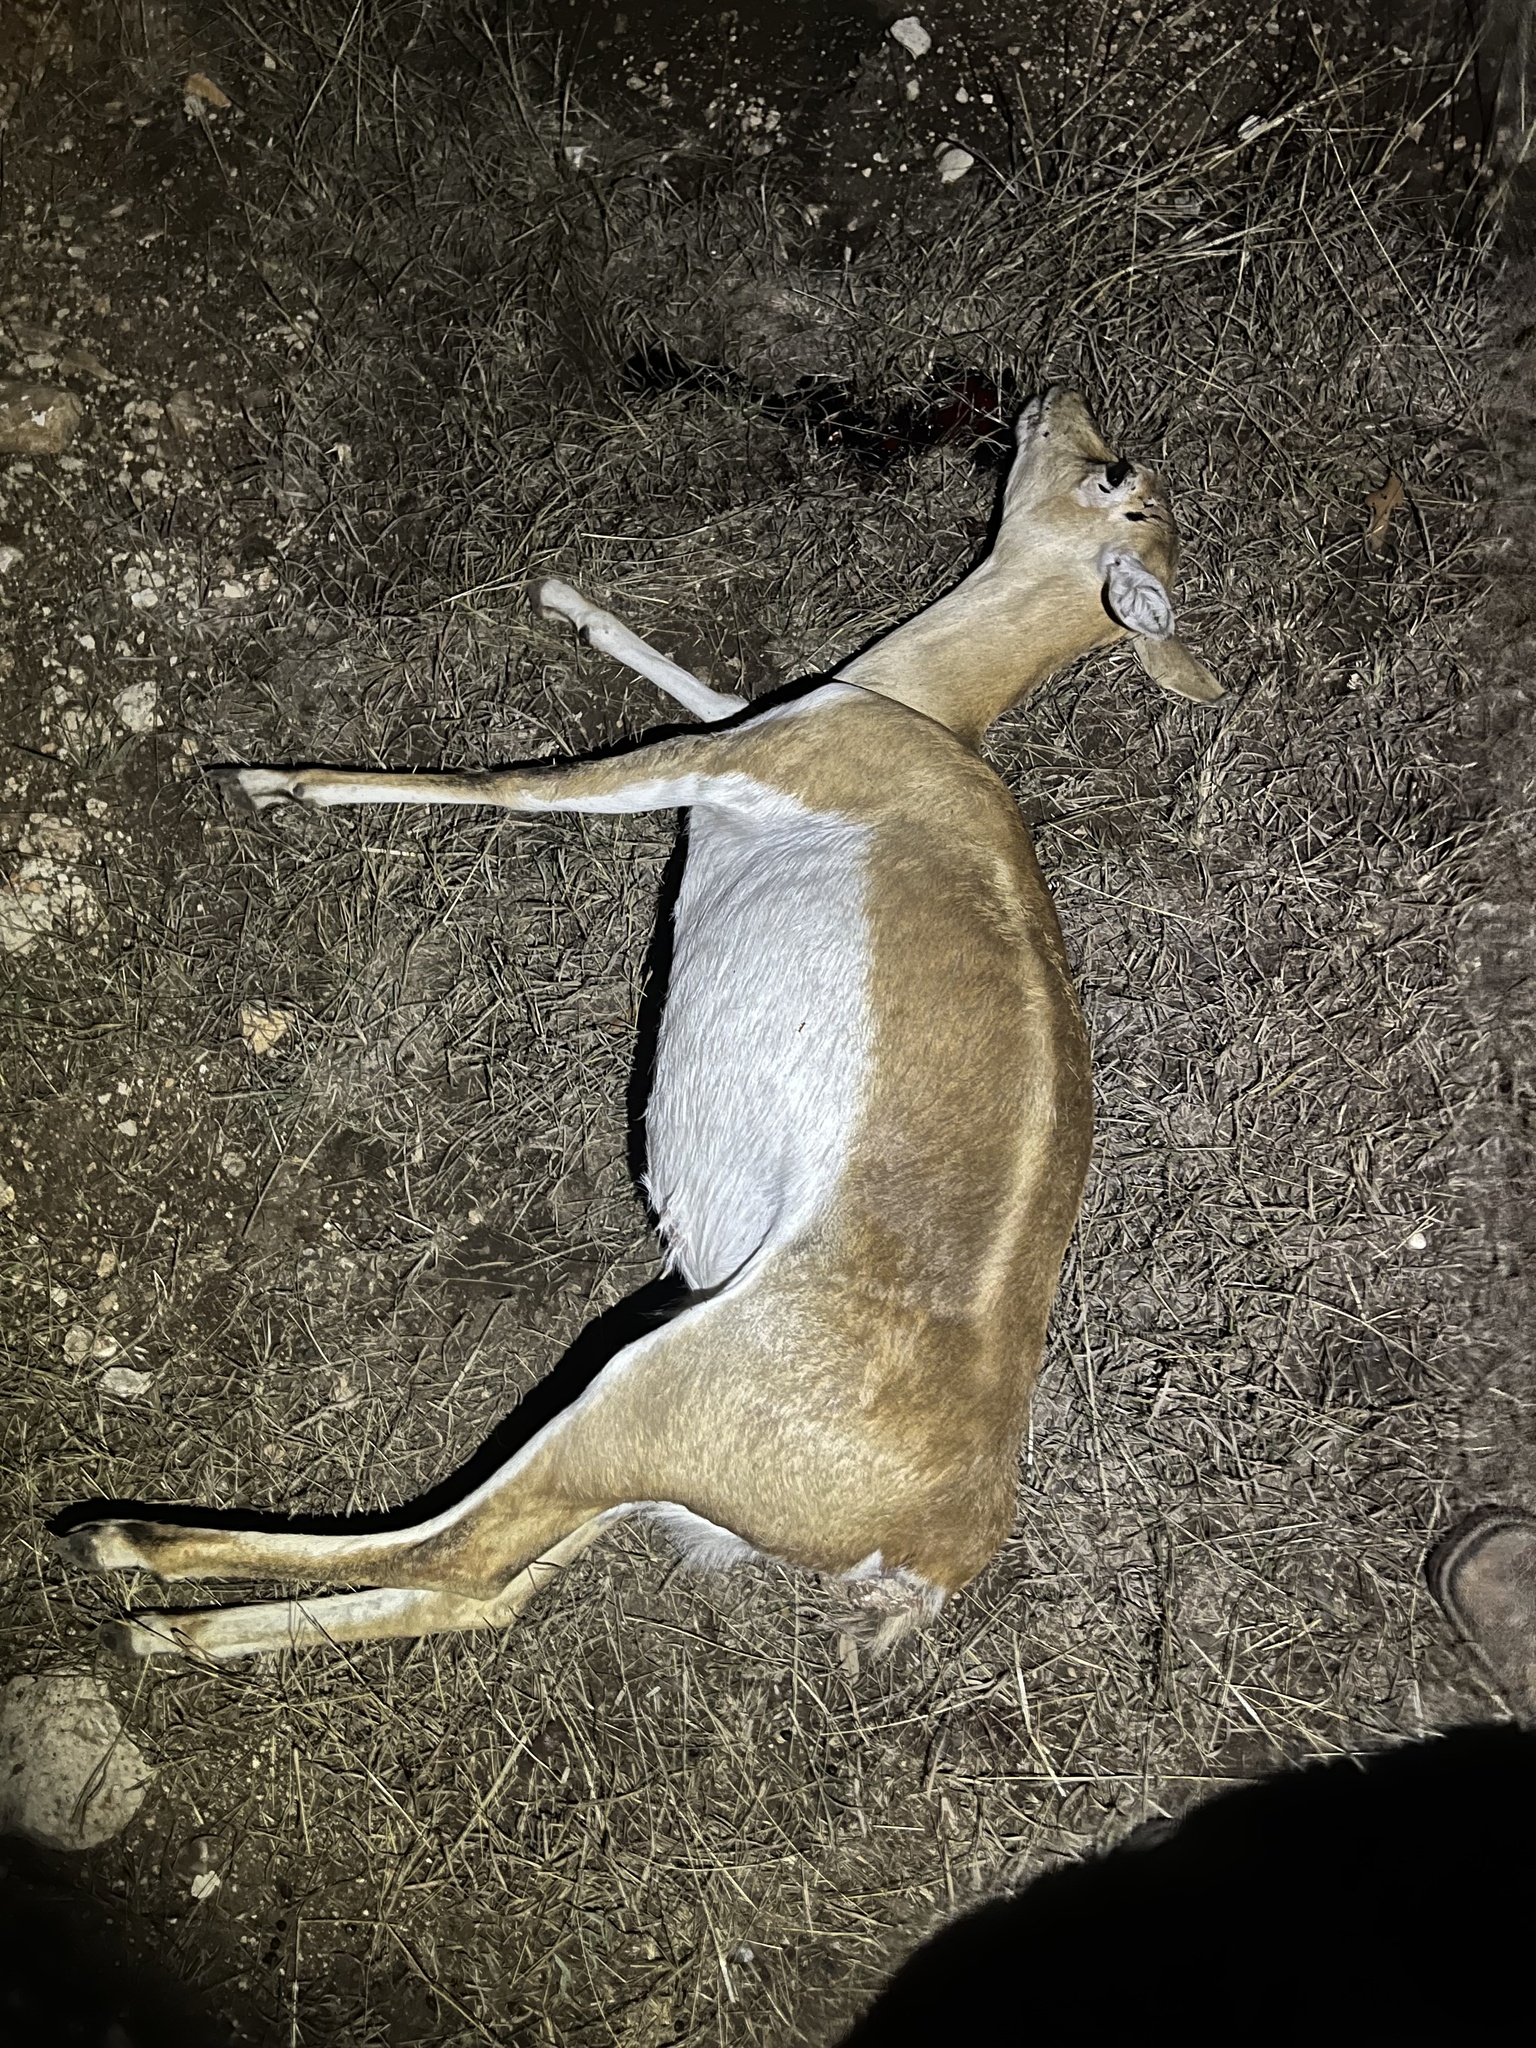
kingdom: Animalia
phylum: Chordata
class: Mammalia
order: Artiodactyla
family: Bovidae
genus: Antilope
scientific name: Antilope cervicapra
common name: Blackbuck
